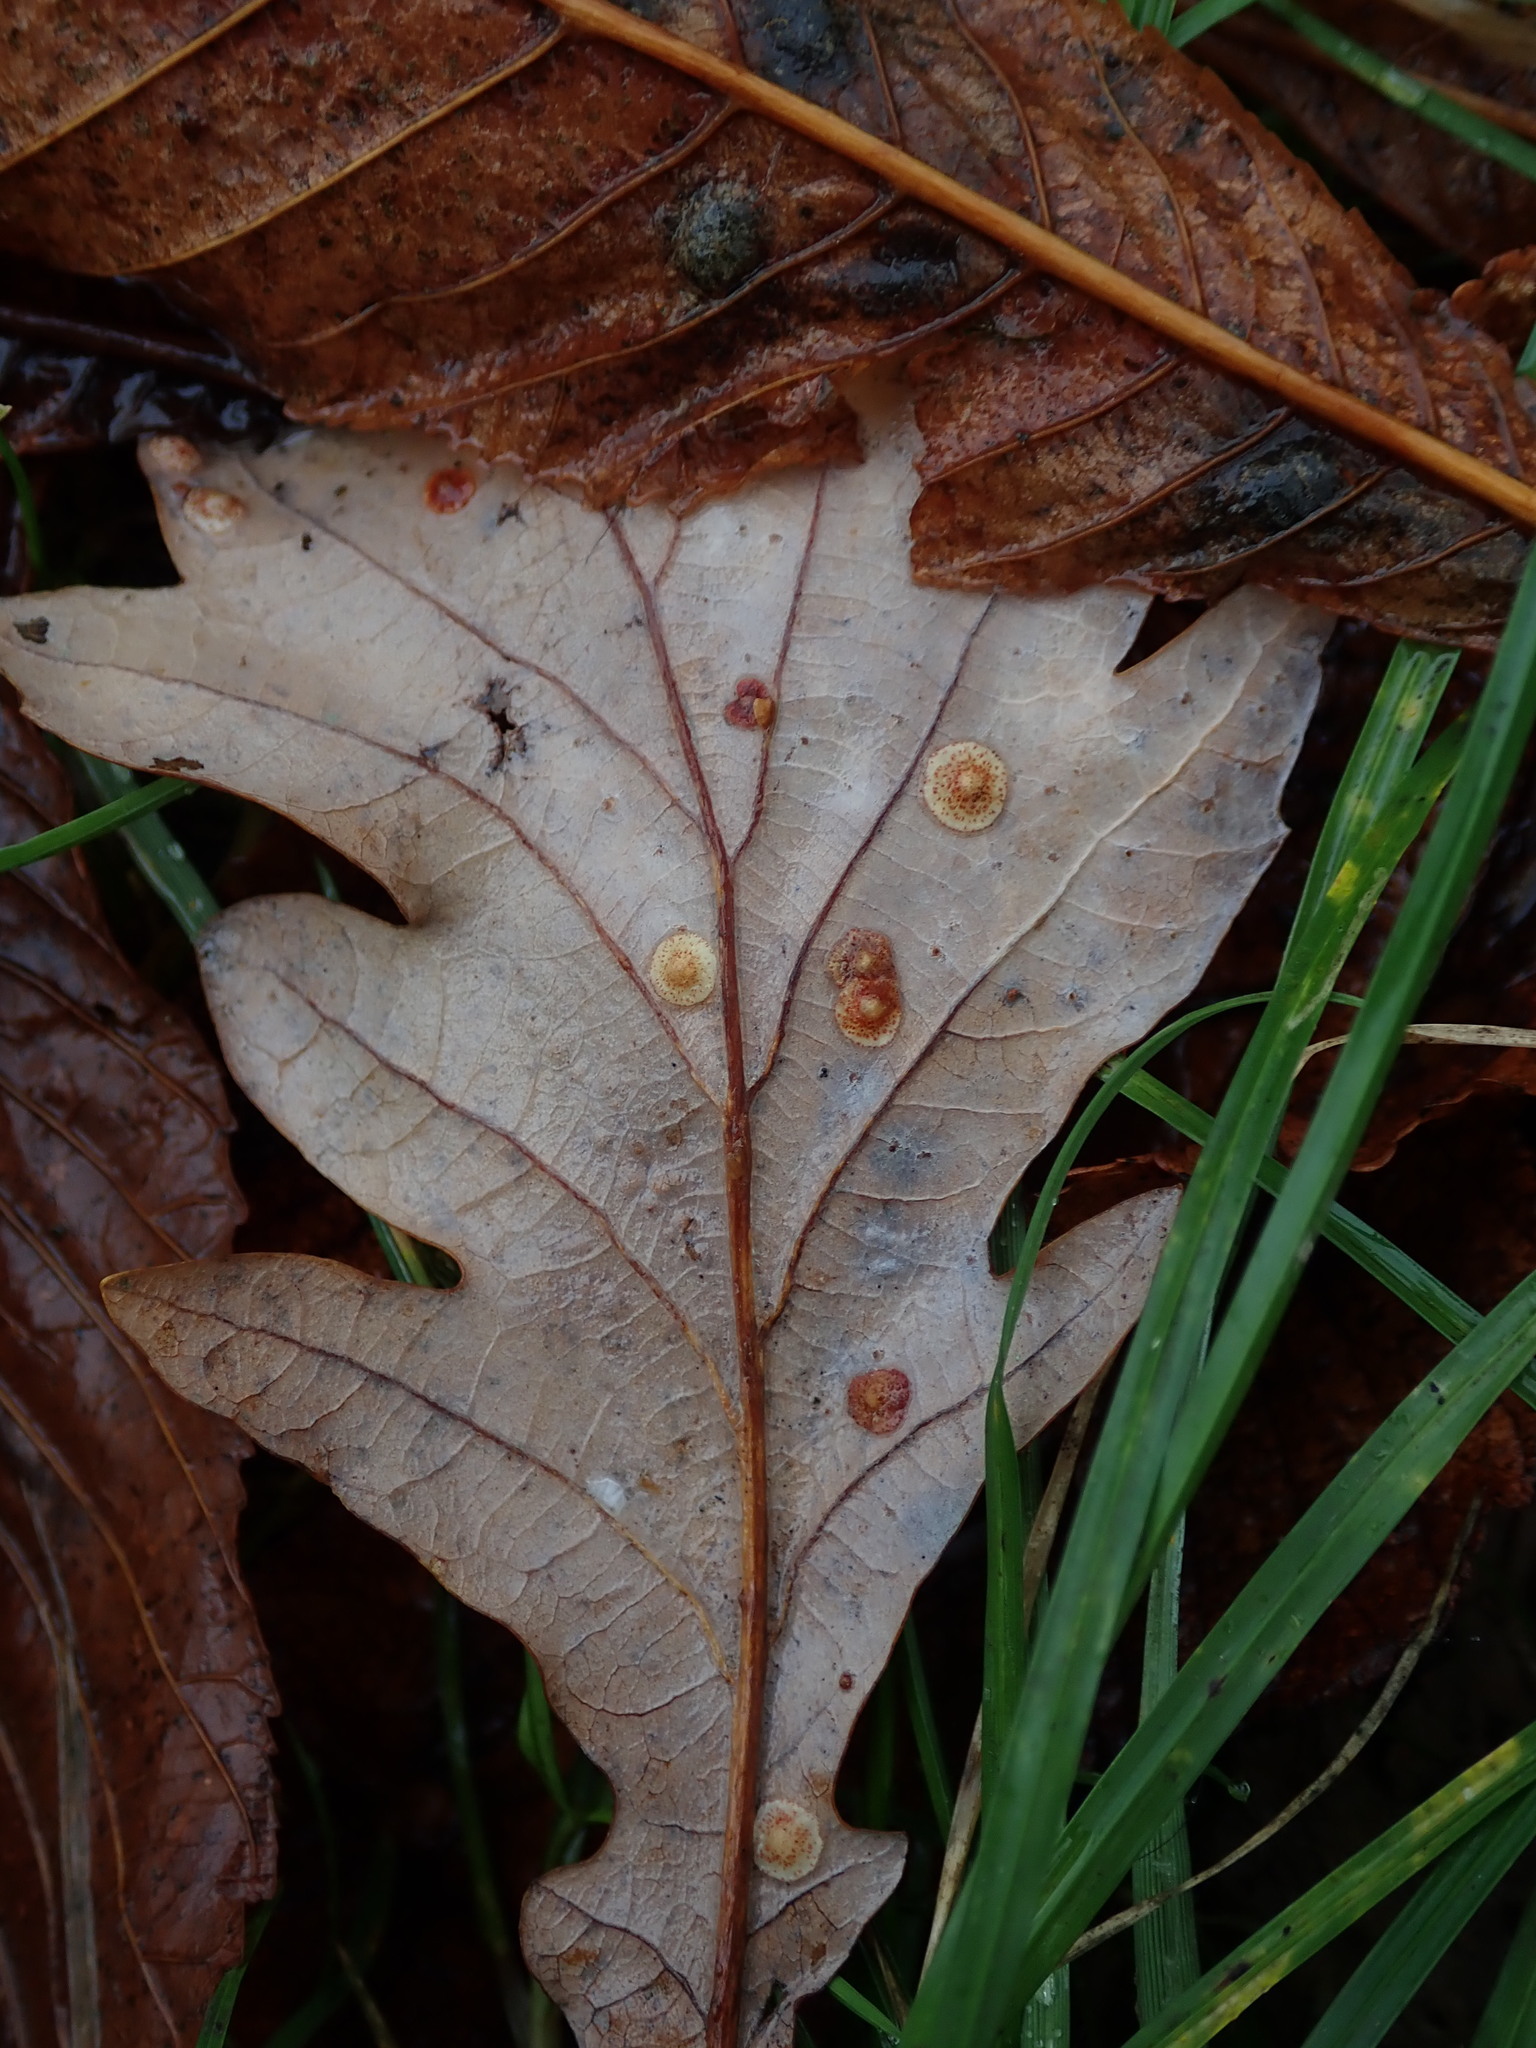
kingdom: Animalia
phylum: Arthropoda
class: Insecta
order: Hymenoptera
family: Cynipidae
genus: Neuroterus
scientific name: Neuroterus quercusbaccarum
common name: Common spangle gall
